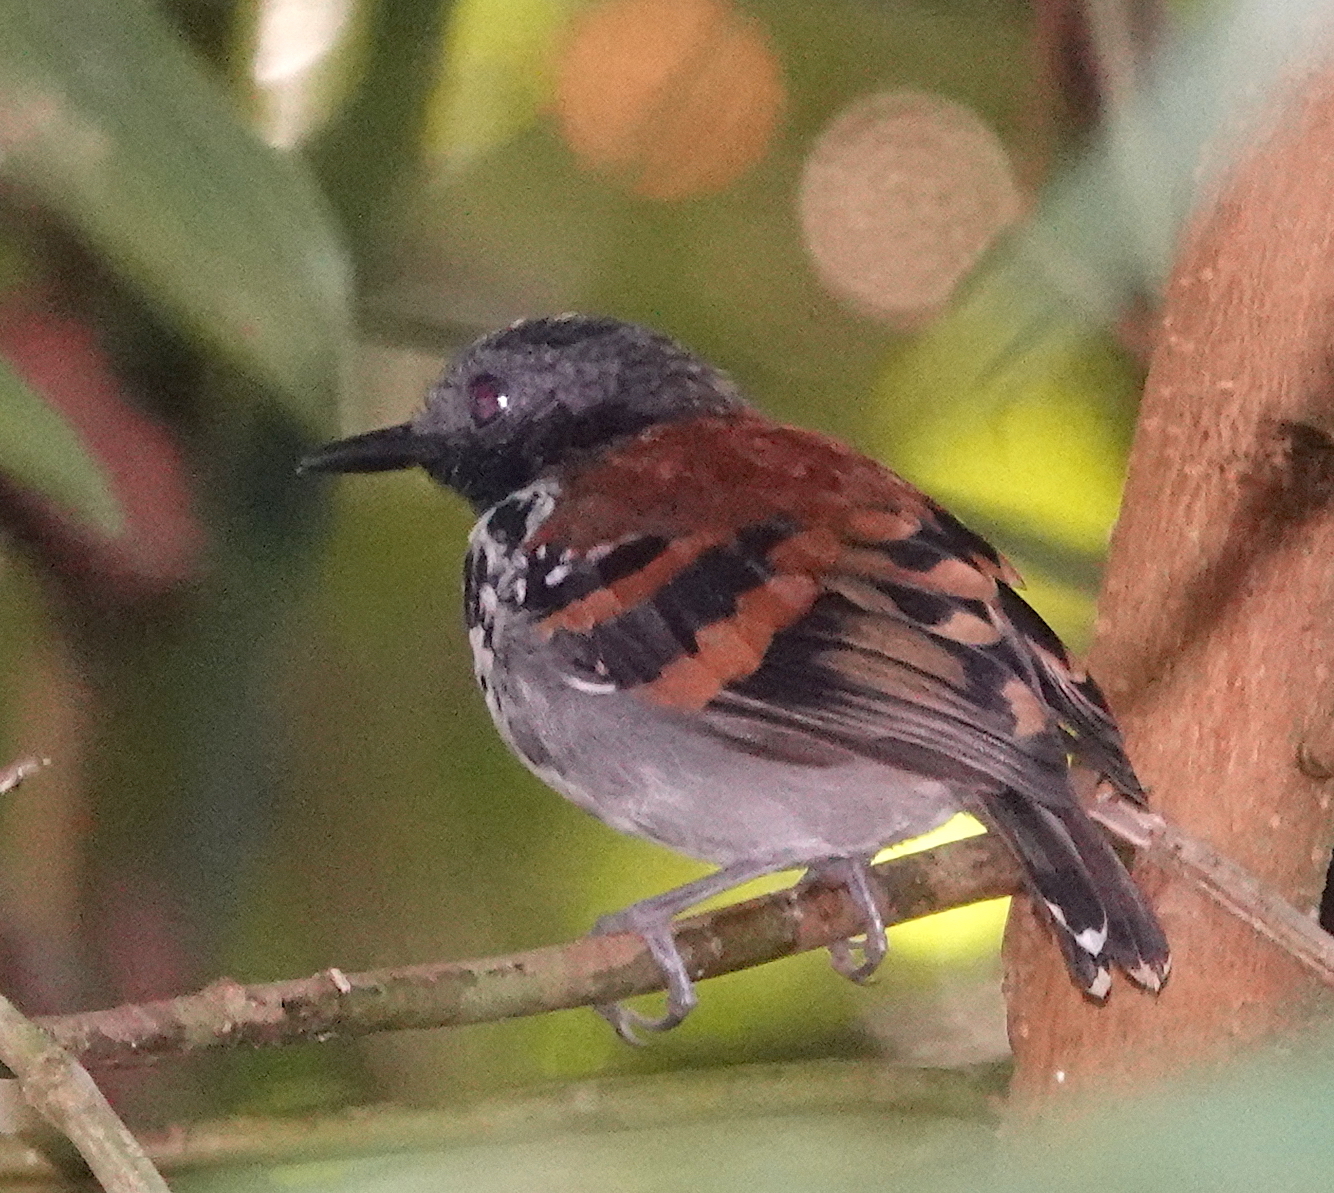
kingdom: Animalia
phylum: Chordata
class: Aves
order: Passeriformes
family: Thamnophilidae
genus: Hylophylax
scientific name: Hylophylax naevioides
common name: Spotted antbird
